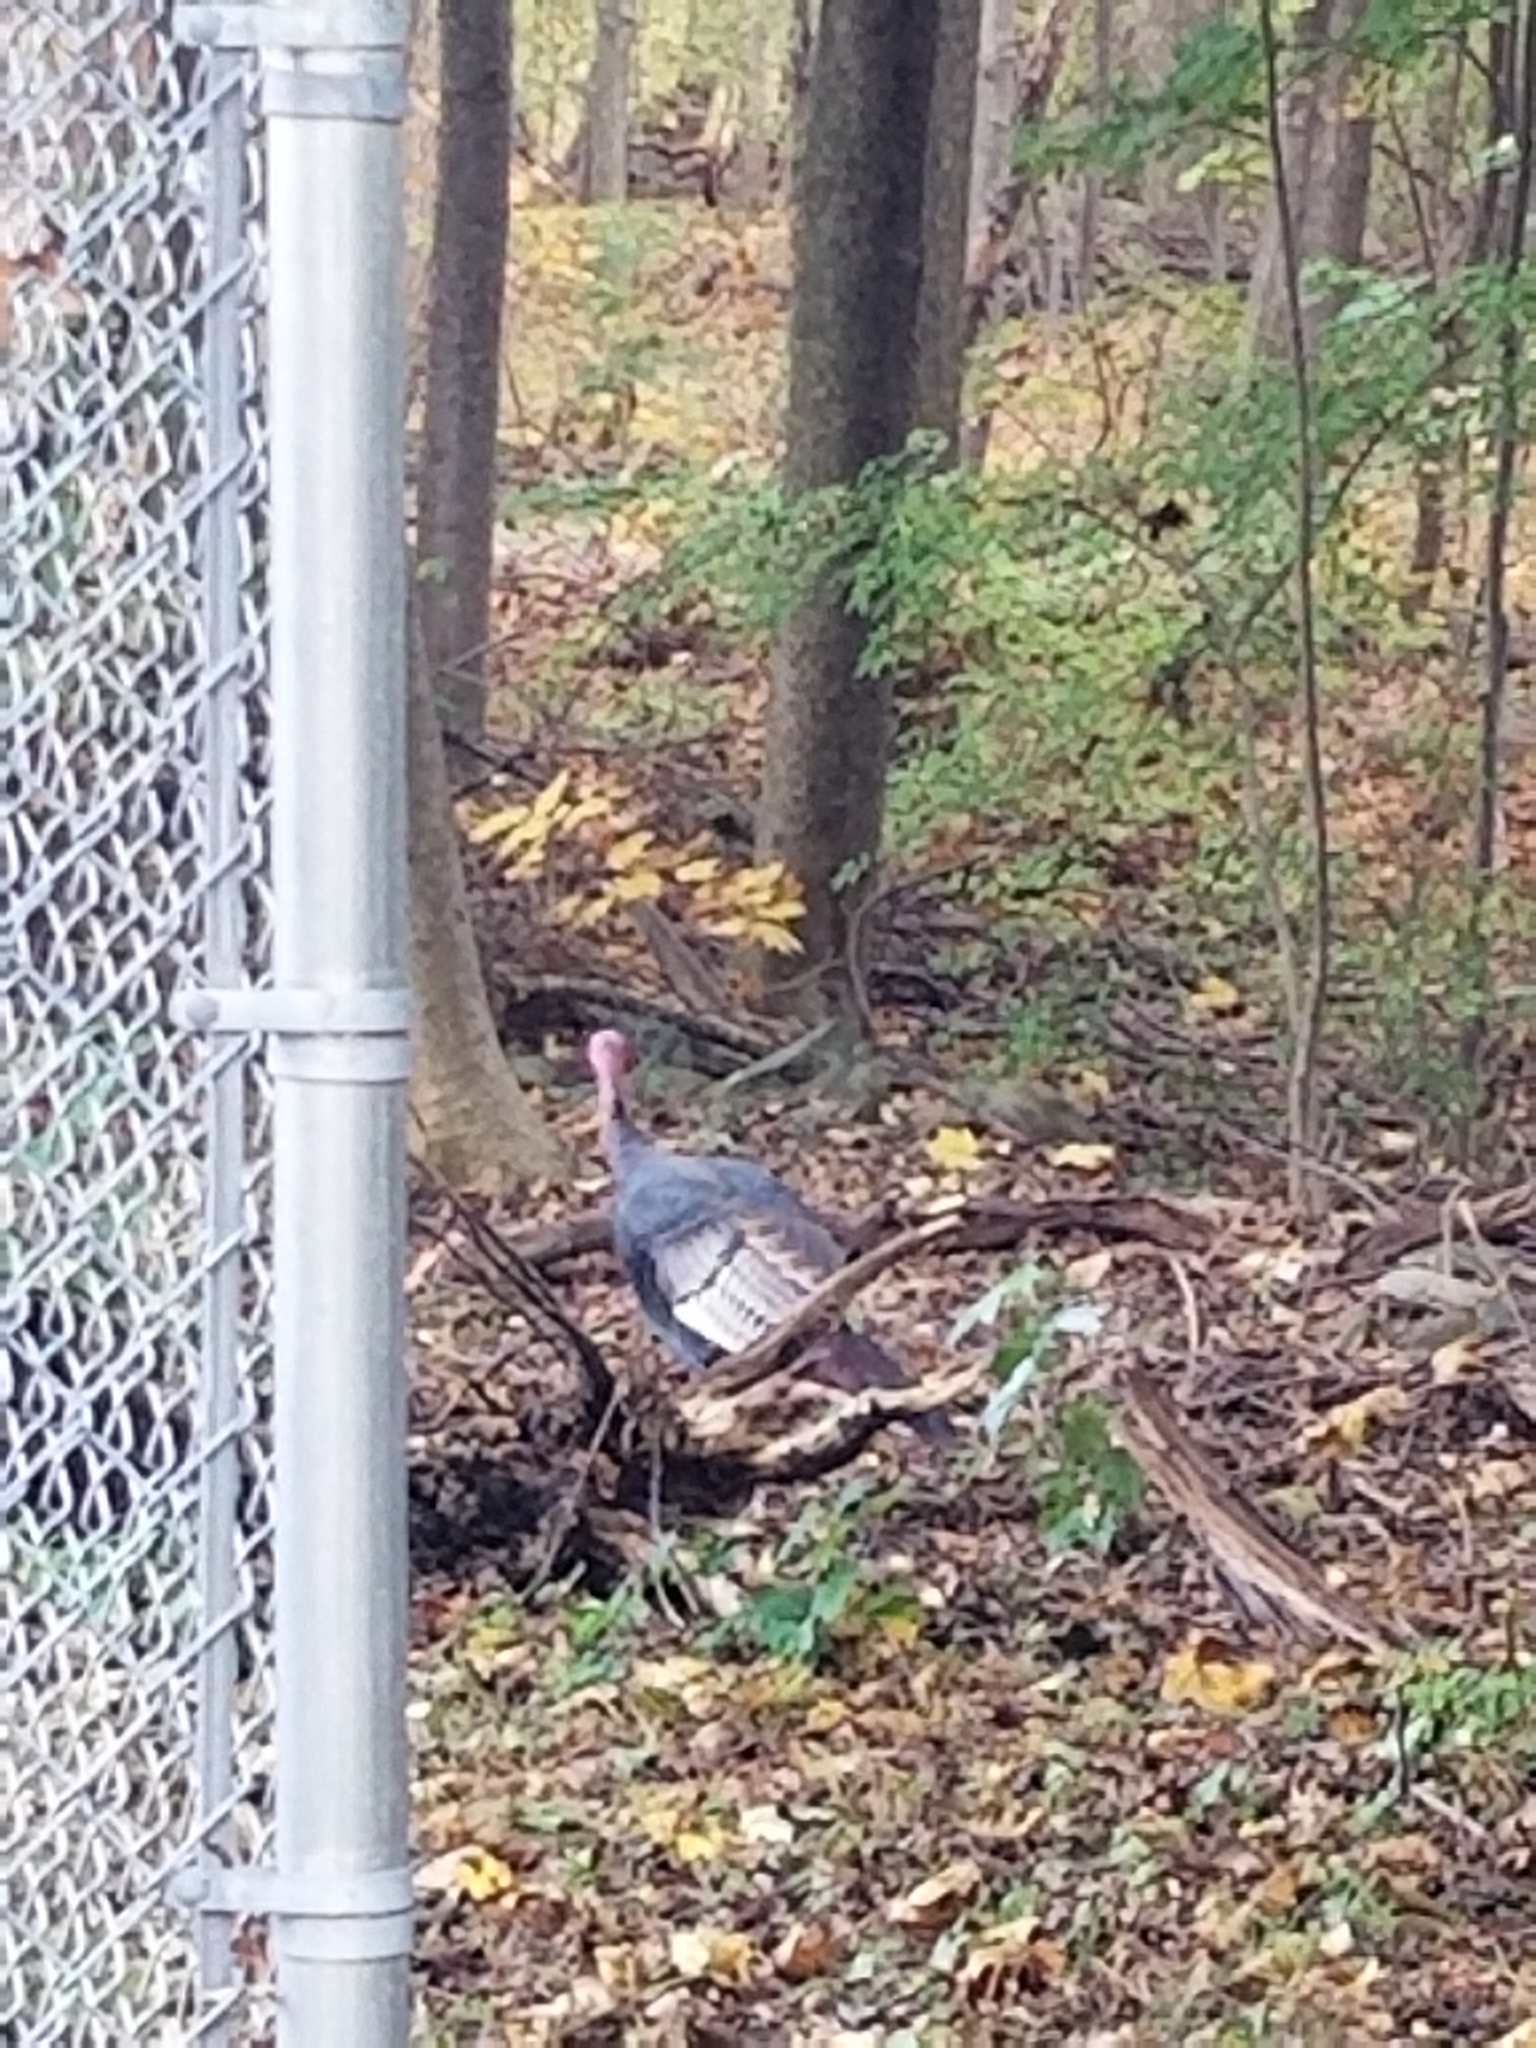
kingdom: Animalia
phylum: Chordata
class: Aves
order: Galliformes
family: Phasianidae
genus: Meleagris
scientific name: Meleagris gallopavo
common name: Wild turkey
